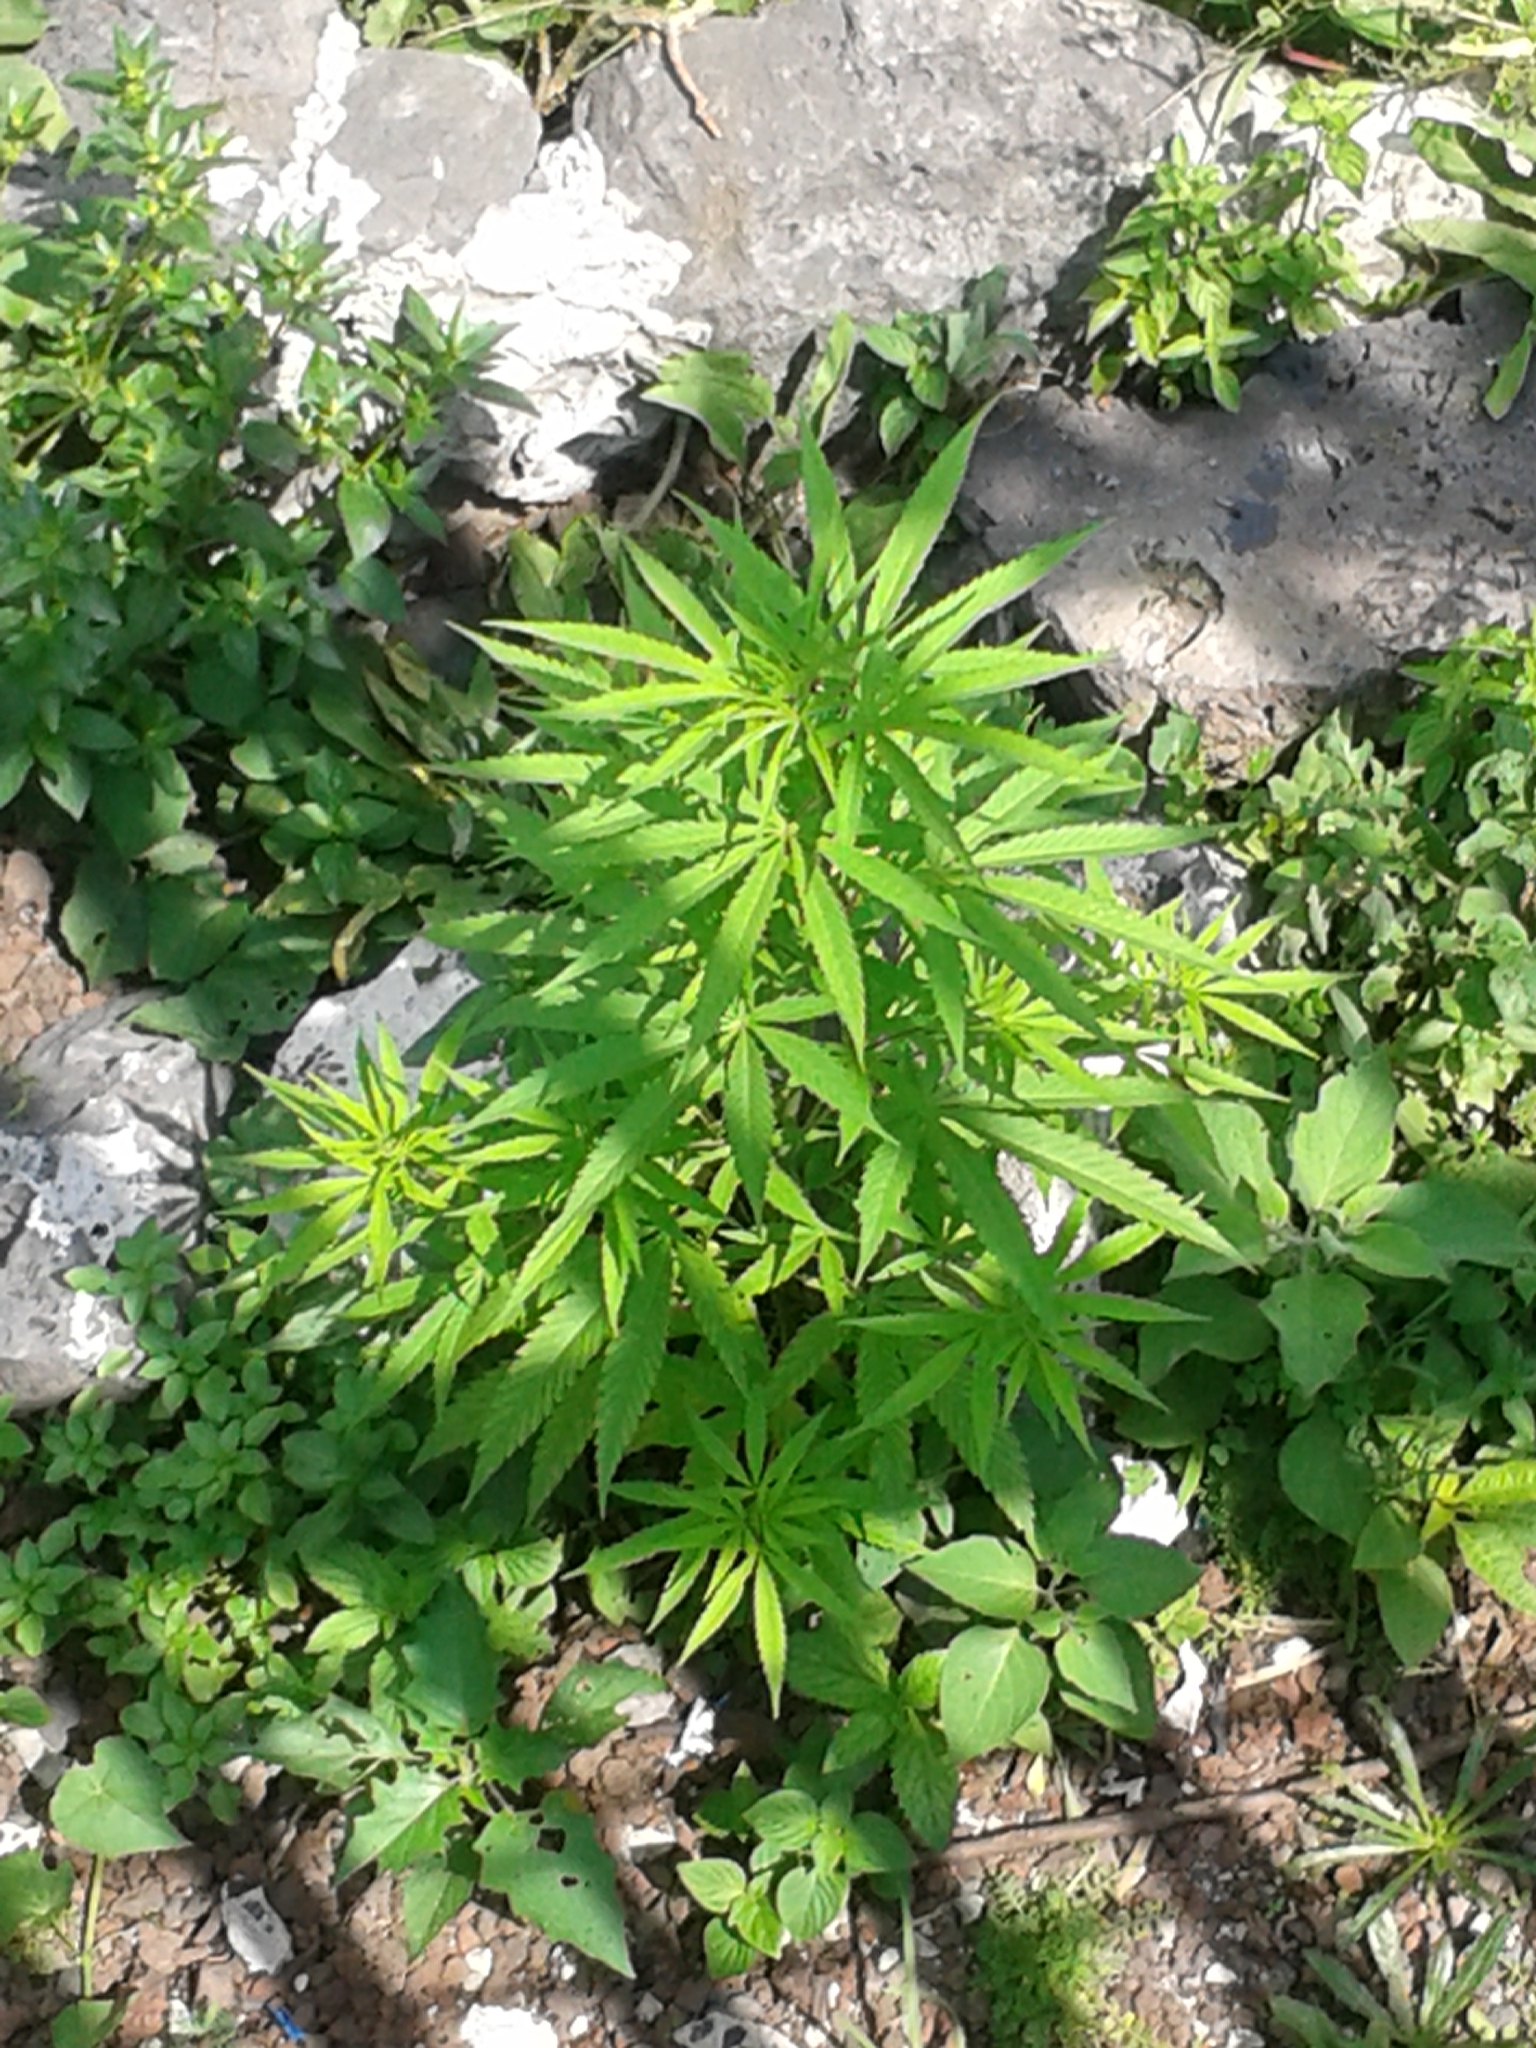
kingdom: Plantae
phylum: Tracheophyta
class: Magnoliopsida
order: Rosales
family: Cannabaceae
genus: Cannabis
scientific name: Cannabis sativa
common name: Hemp
